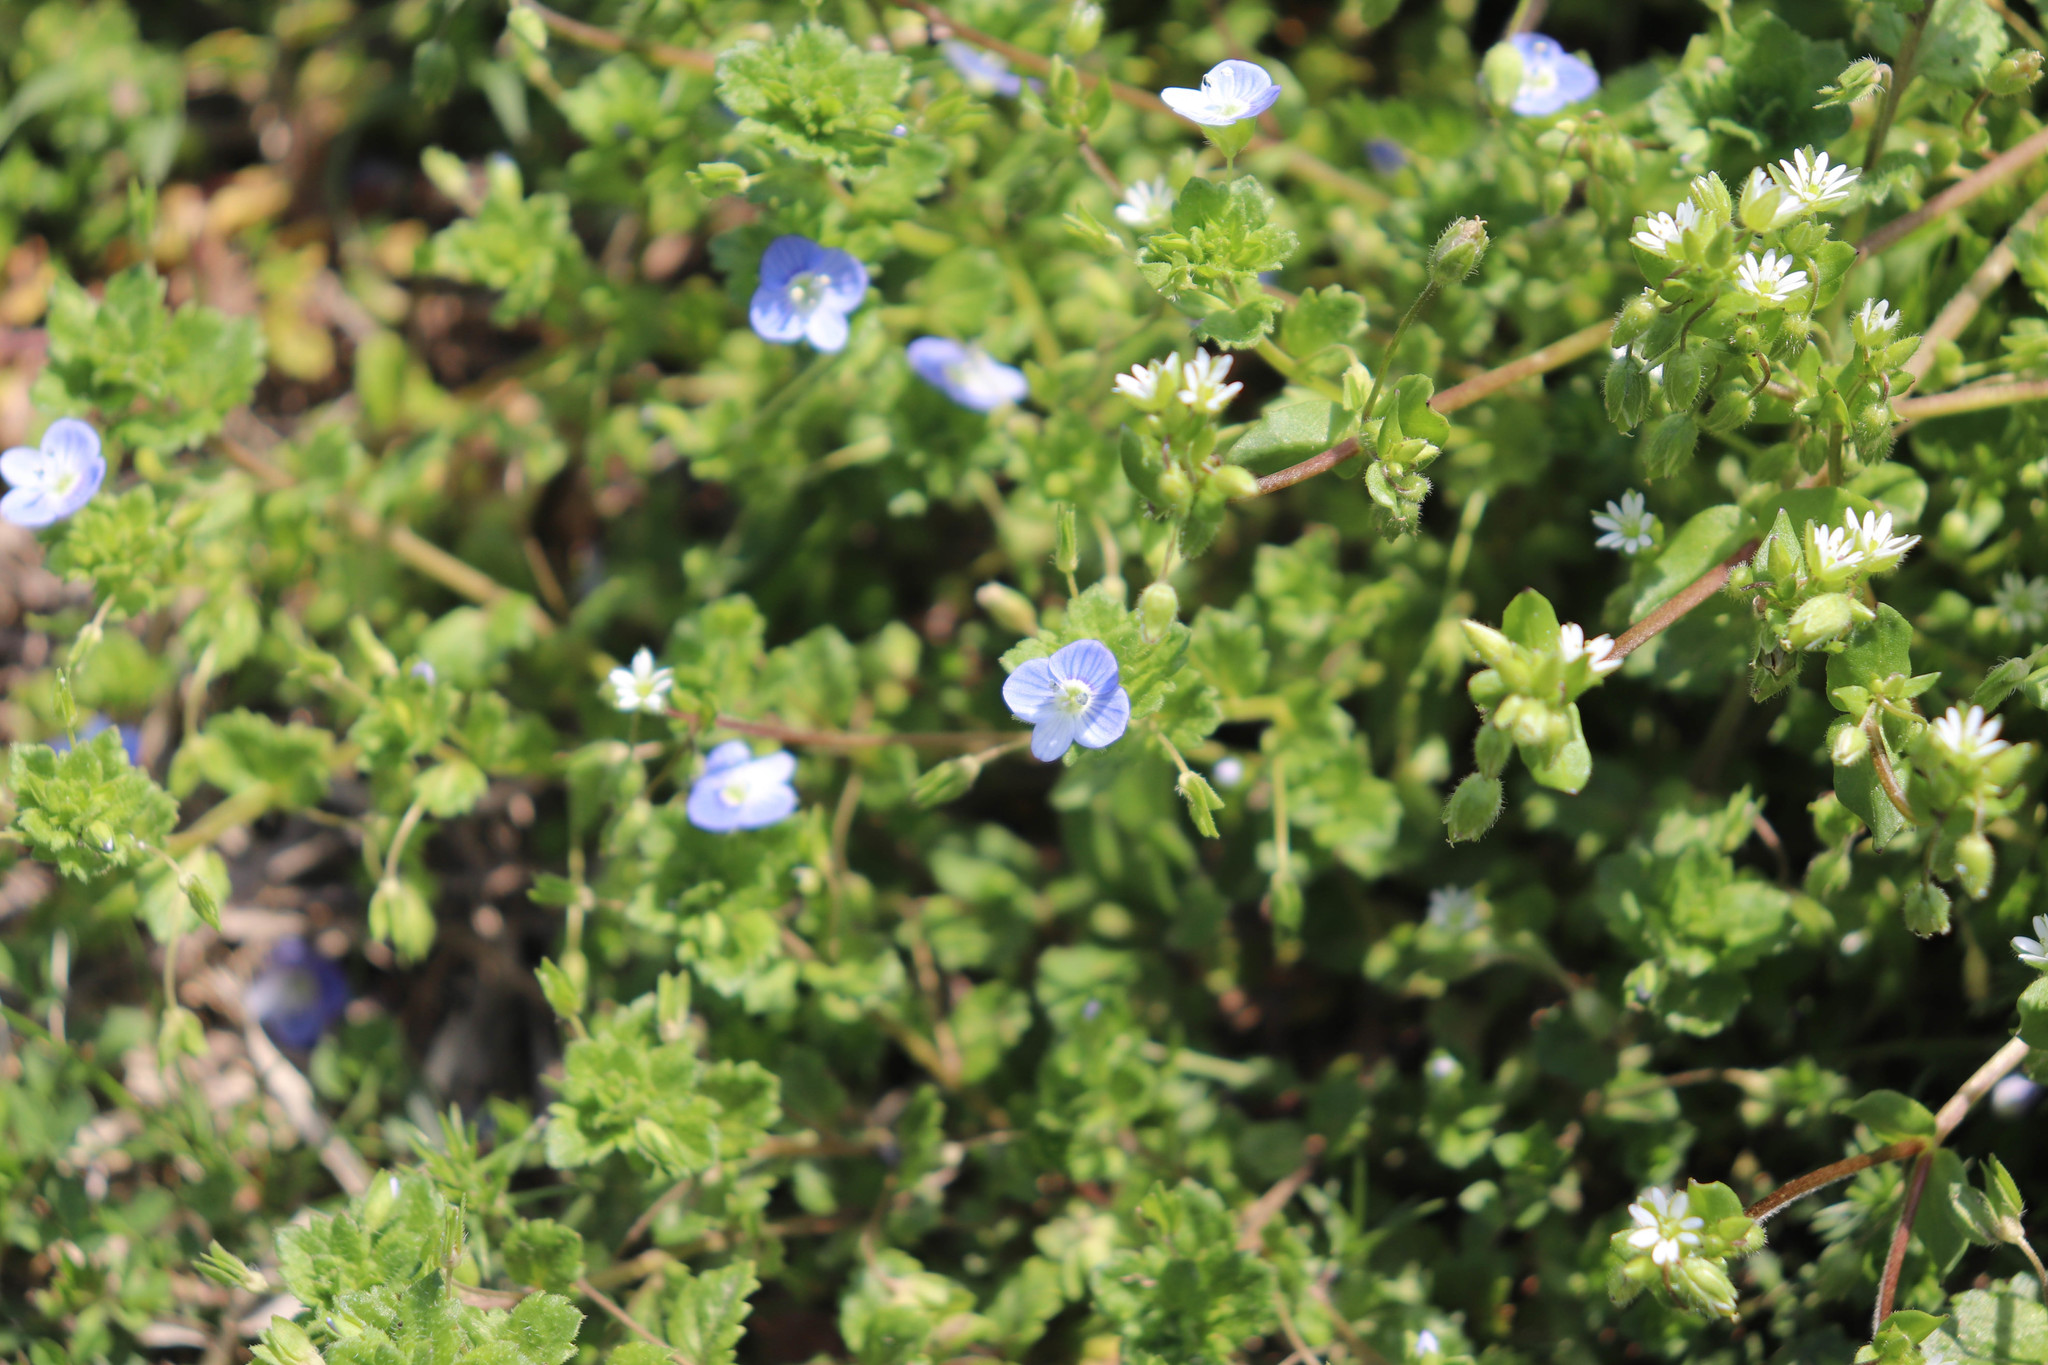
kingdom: Plantae
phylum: Tracheophyta
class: Magnoliopsida
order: Lamiales
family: Plantaginaceae
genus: Veronica
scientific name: Veronica persica
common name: Common field-speedwell
